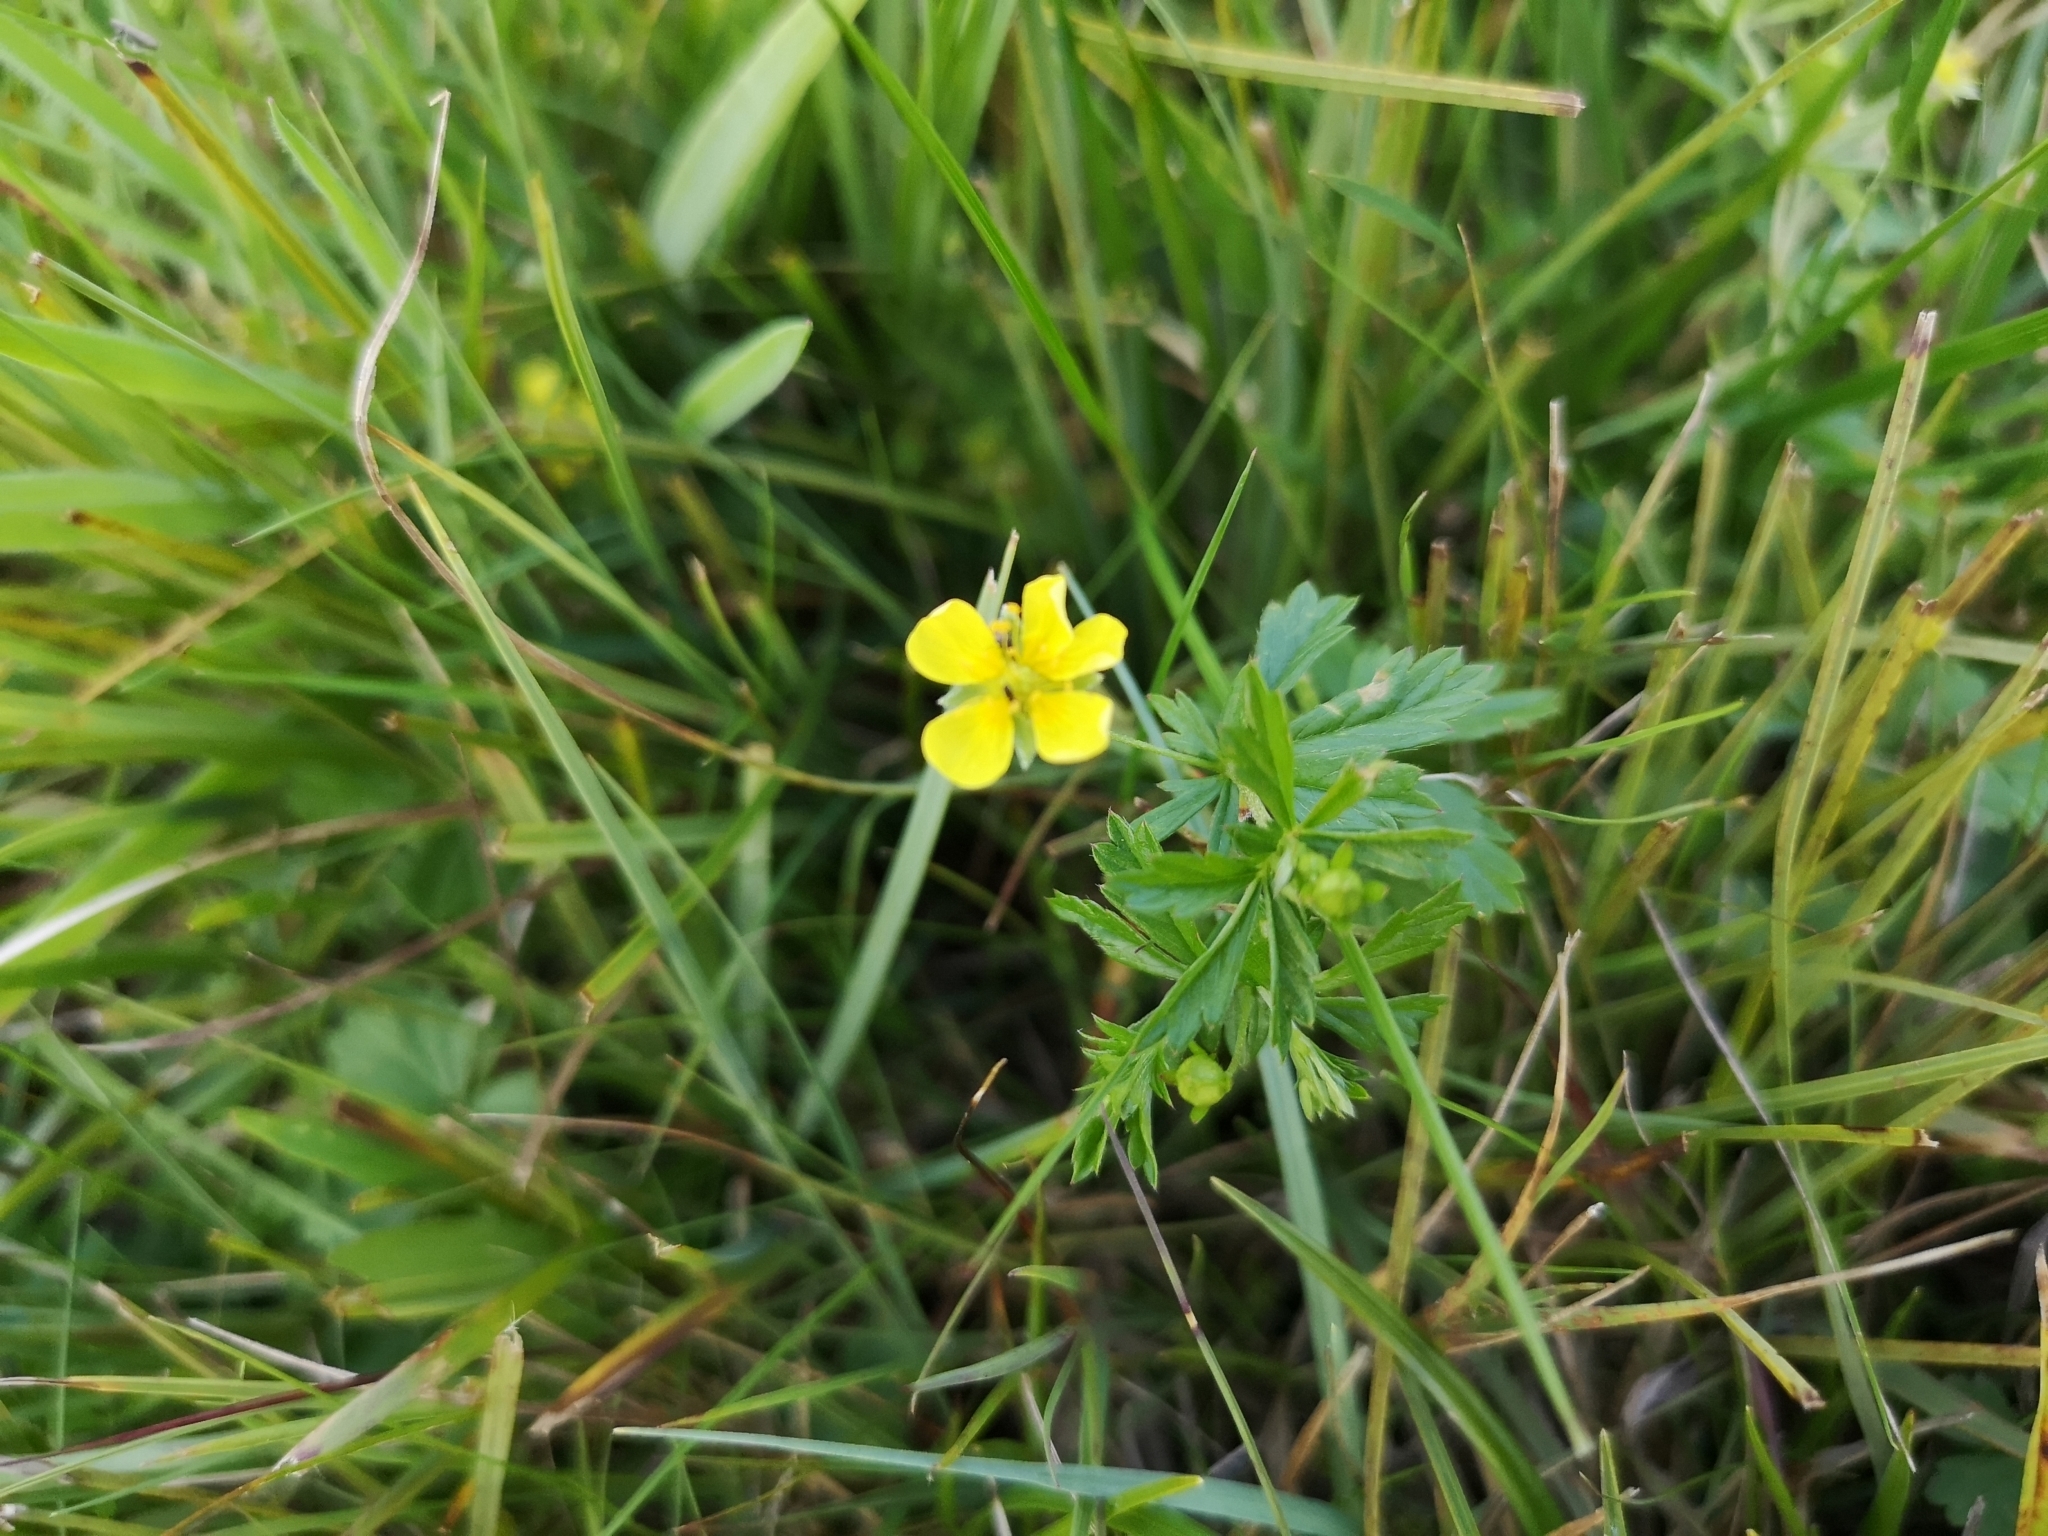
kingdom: Plantae
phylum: Tracheophyta
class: Magnoliopsida
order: Rosales
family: Rosaceae
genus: Potentilla
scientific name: Potentilla erecta
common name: Tormentil
